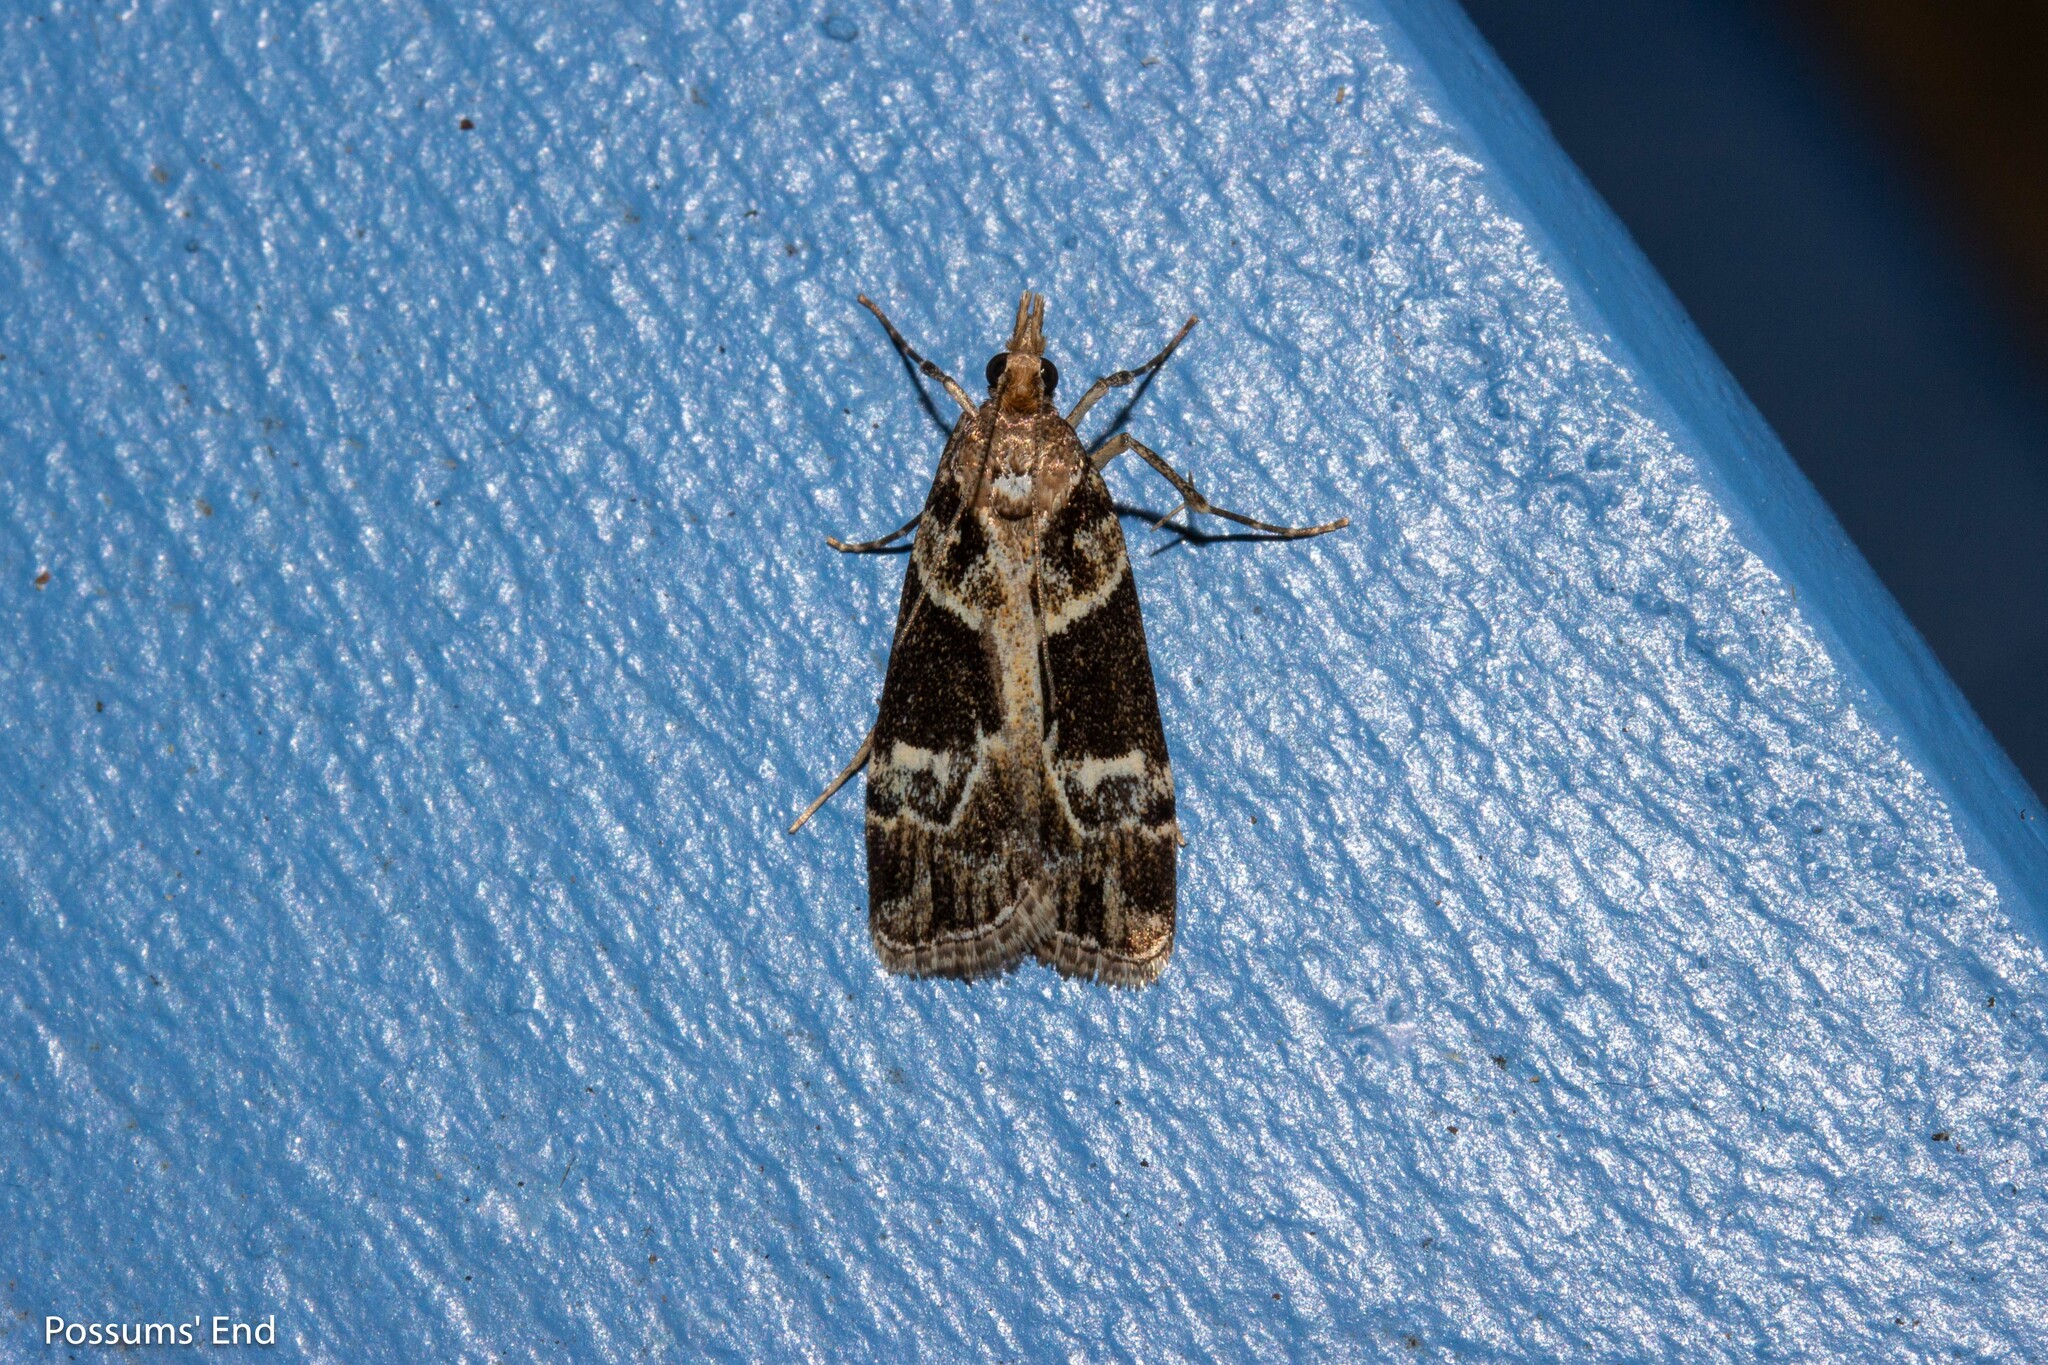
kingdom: Animalia
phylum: Arthropoda
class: Insecta
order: Lepidoptera
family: Crambidae
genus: Eudonia
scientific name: Eudonia melanaegis
